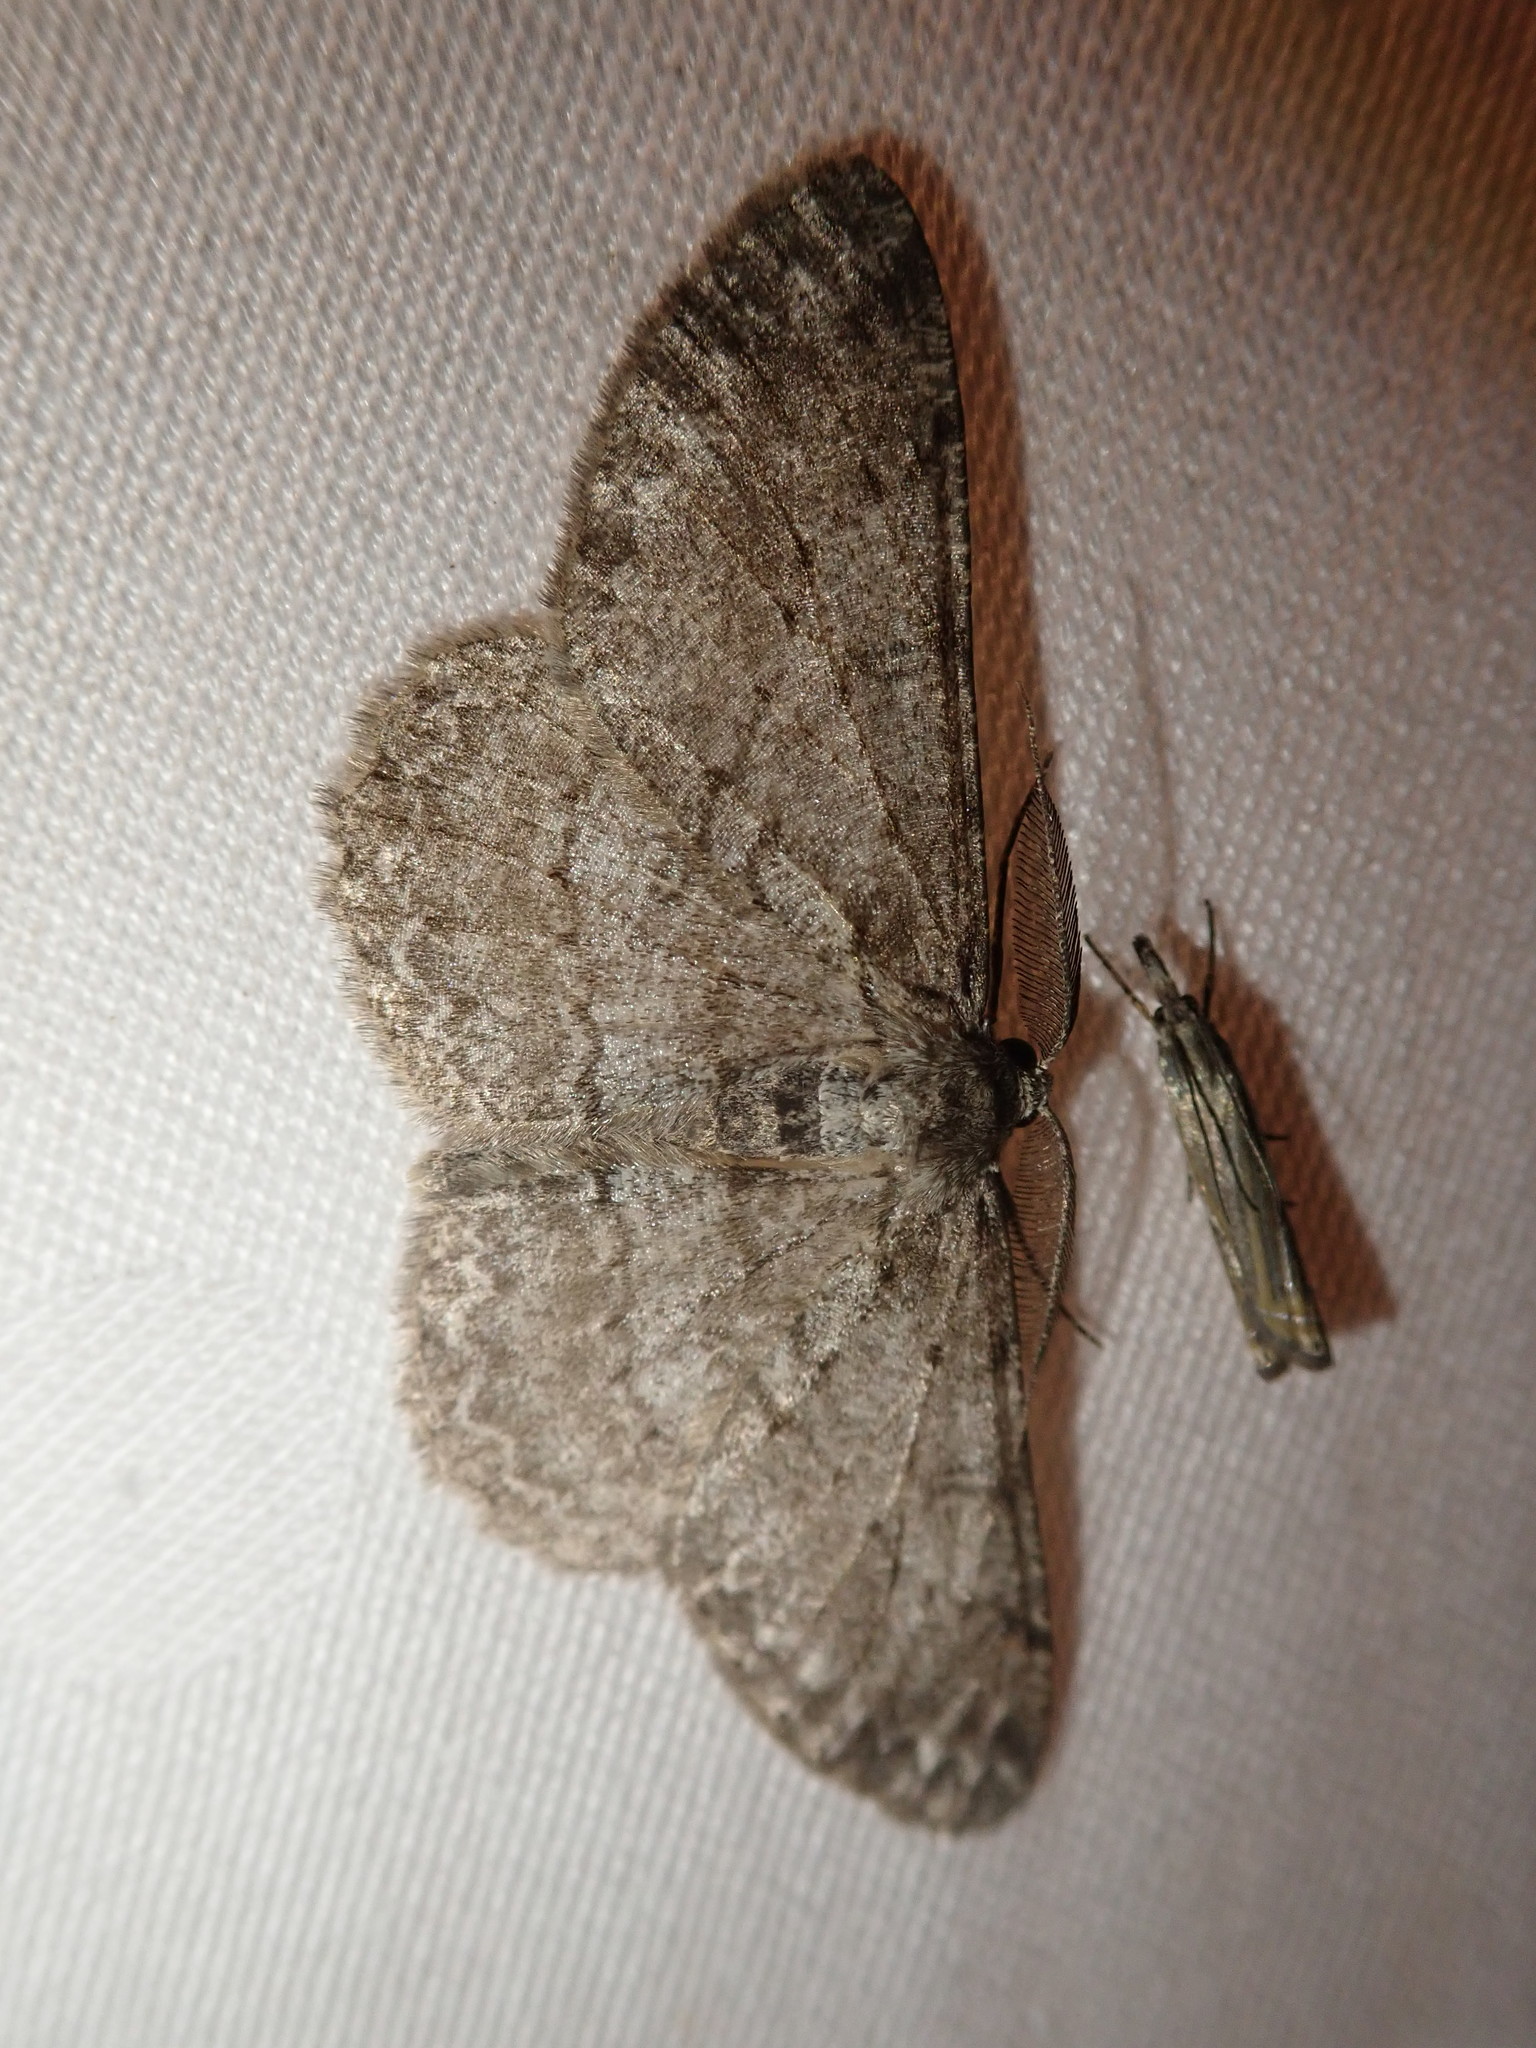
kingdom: Animalia
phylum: Arthropoda
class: Insecta
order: Lepidoptera
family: Geometridae
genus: Hypomecis
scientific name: Hypomecis punctinalis
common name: Pale oak beauty
